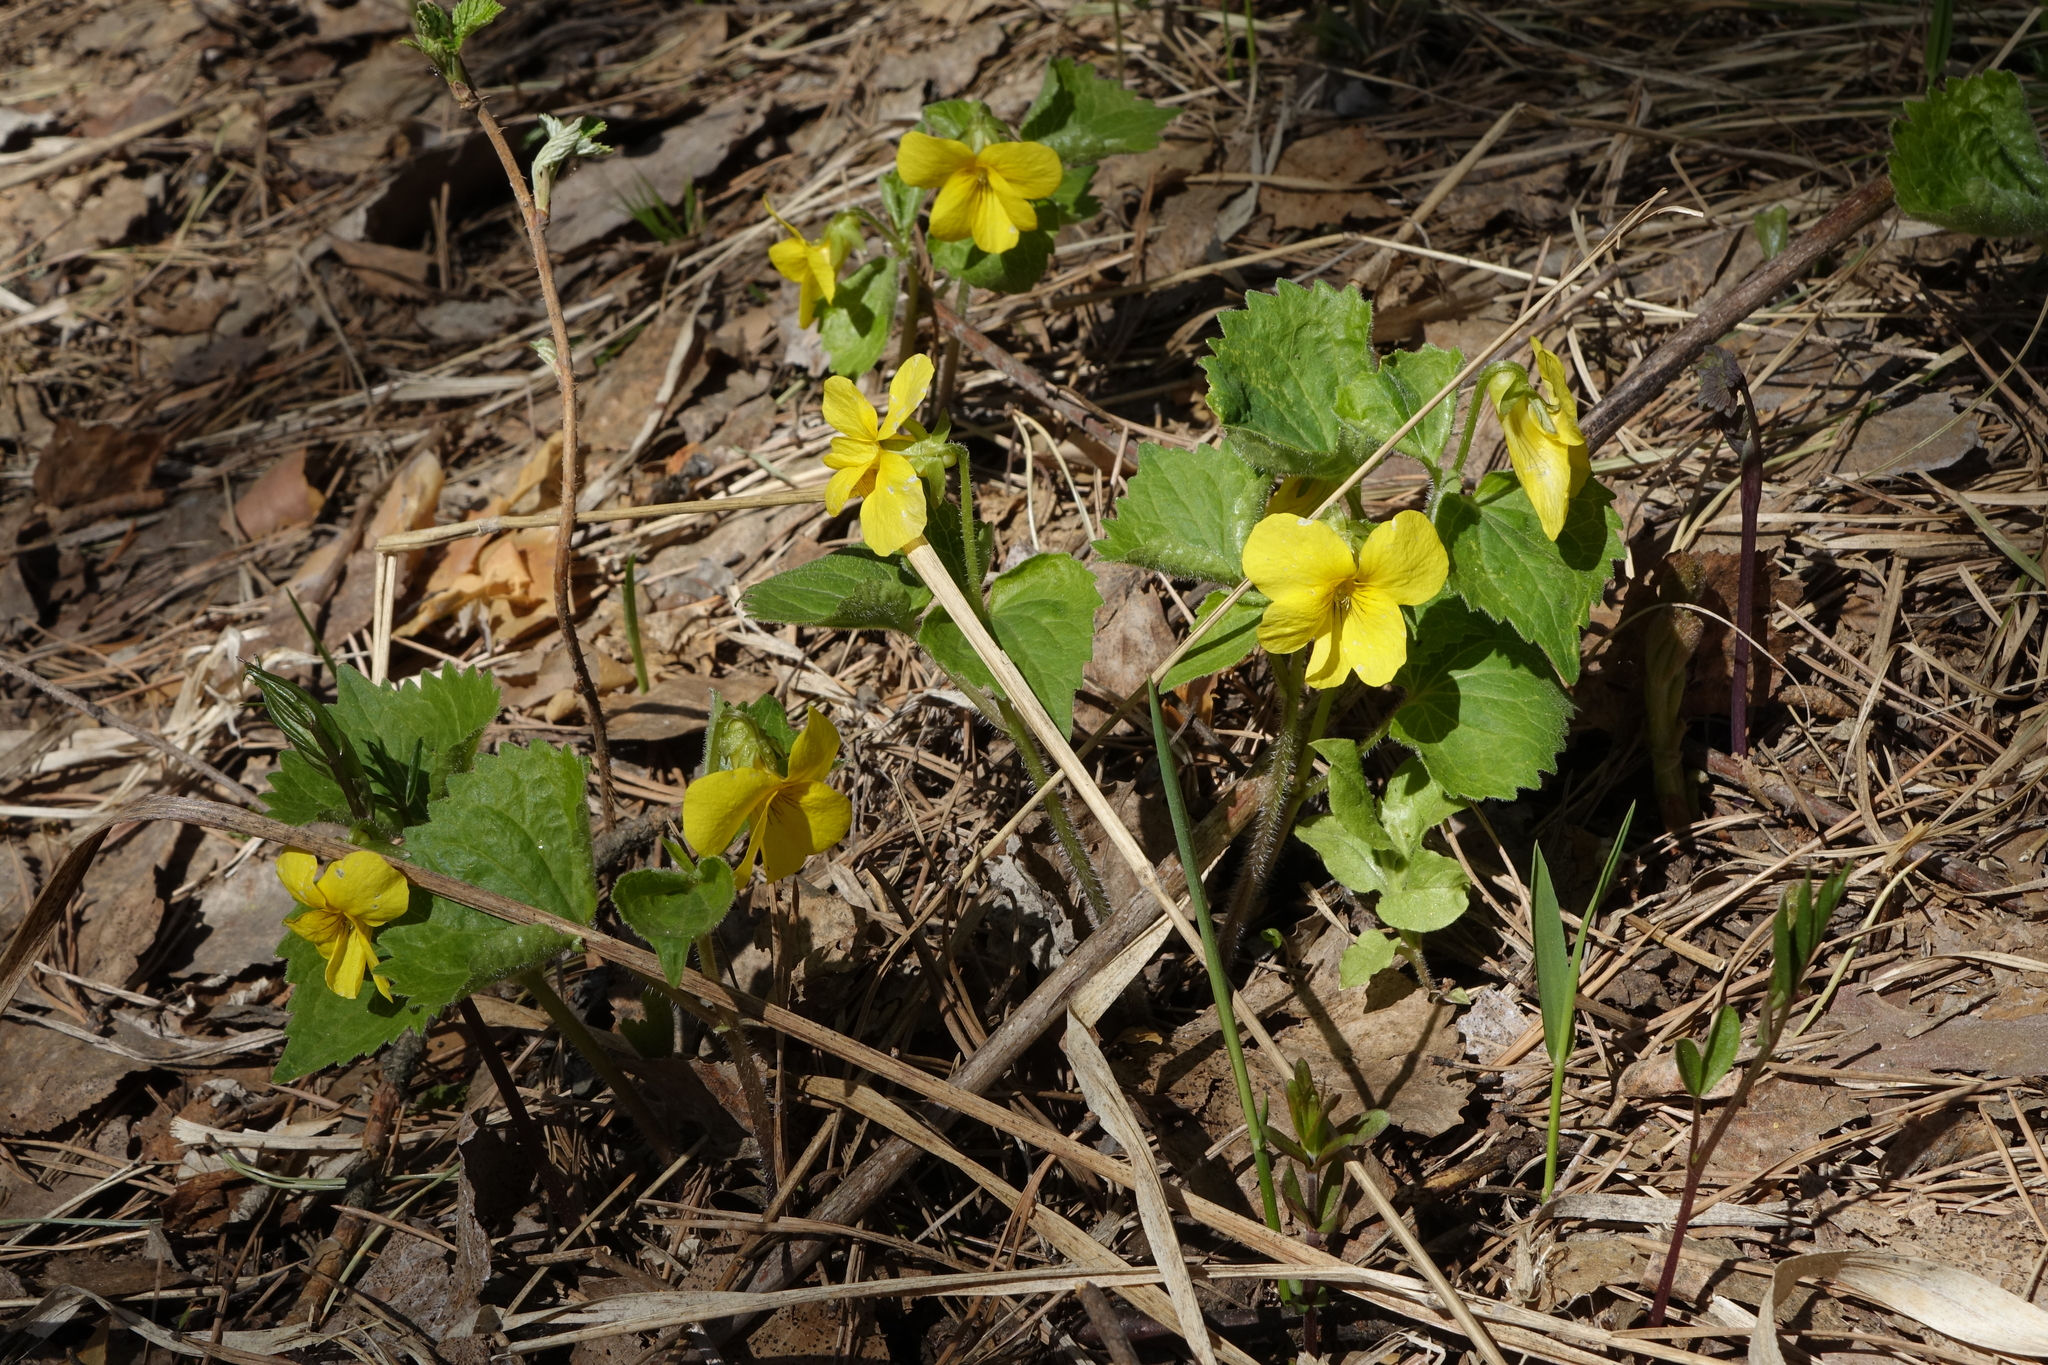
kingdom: Plantae
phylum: Tracheophyta
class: Magnoliopsida
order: Malpighiales
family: Violaceae
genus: Viola
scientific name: Viola uniflora
